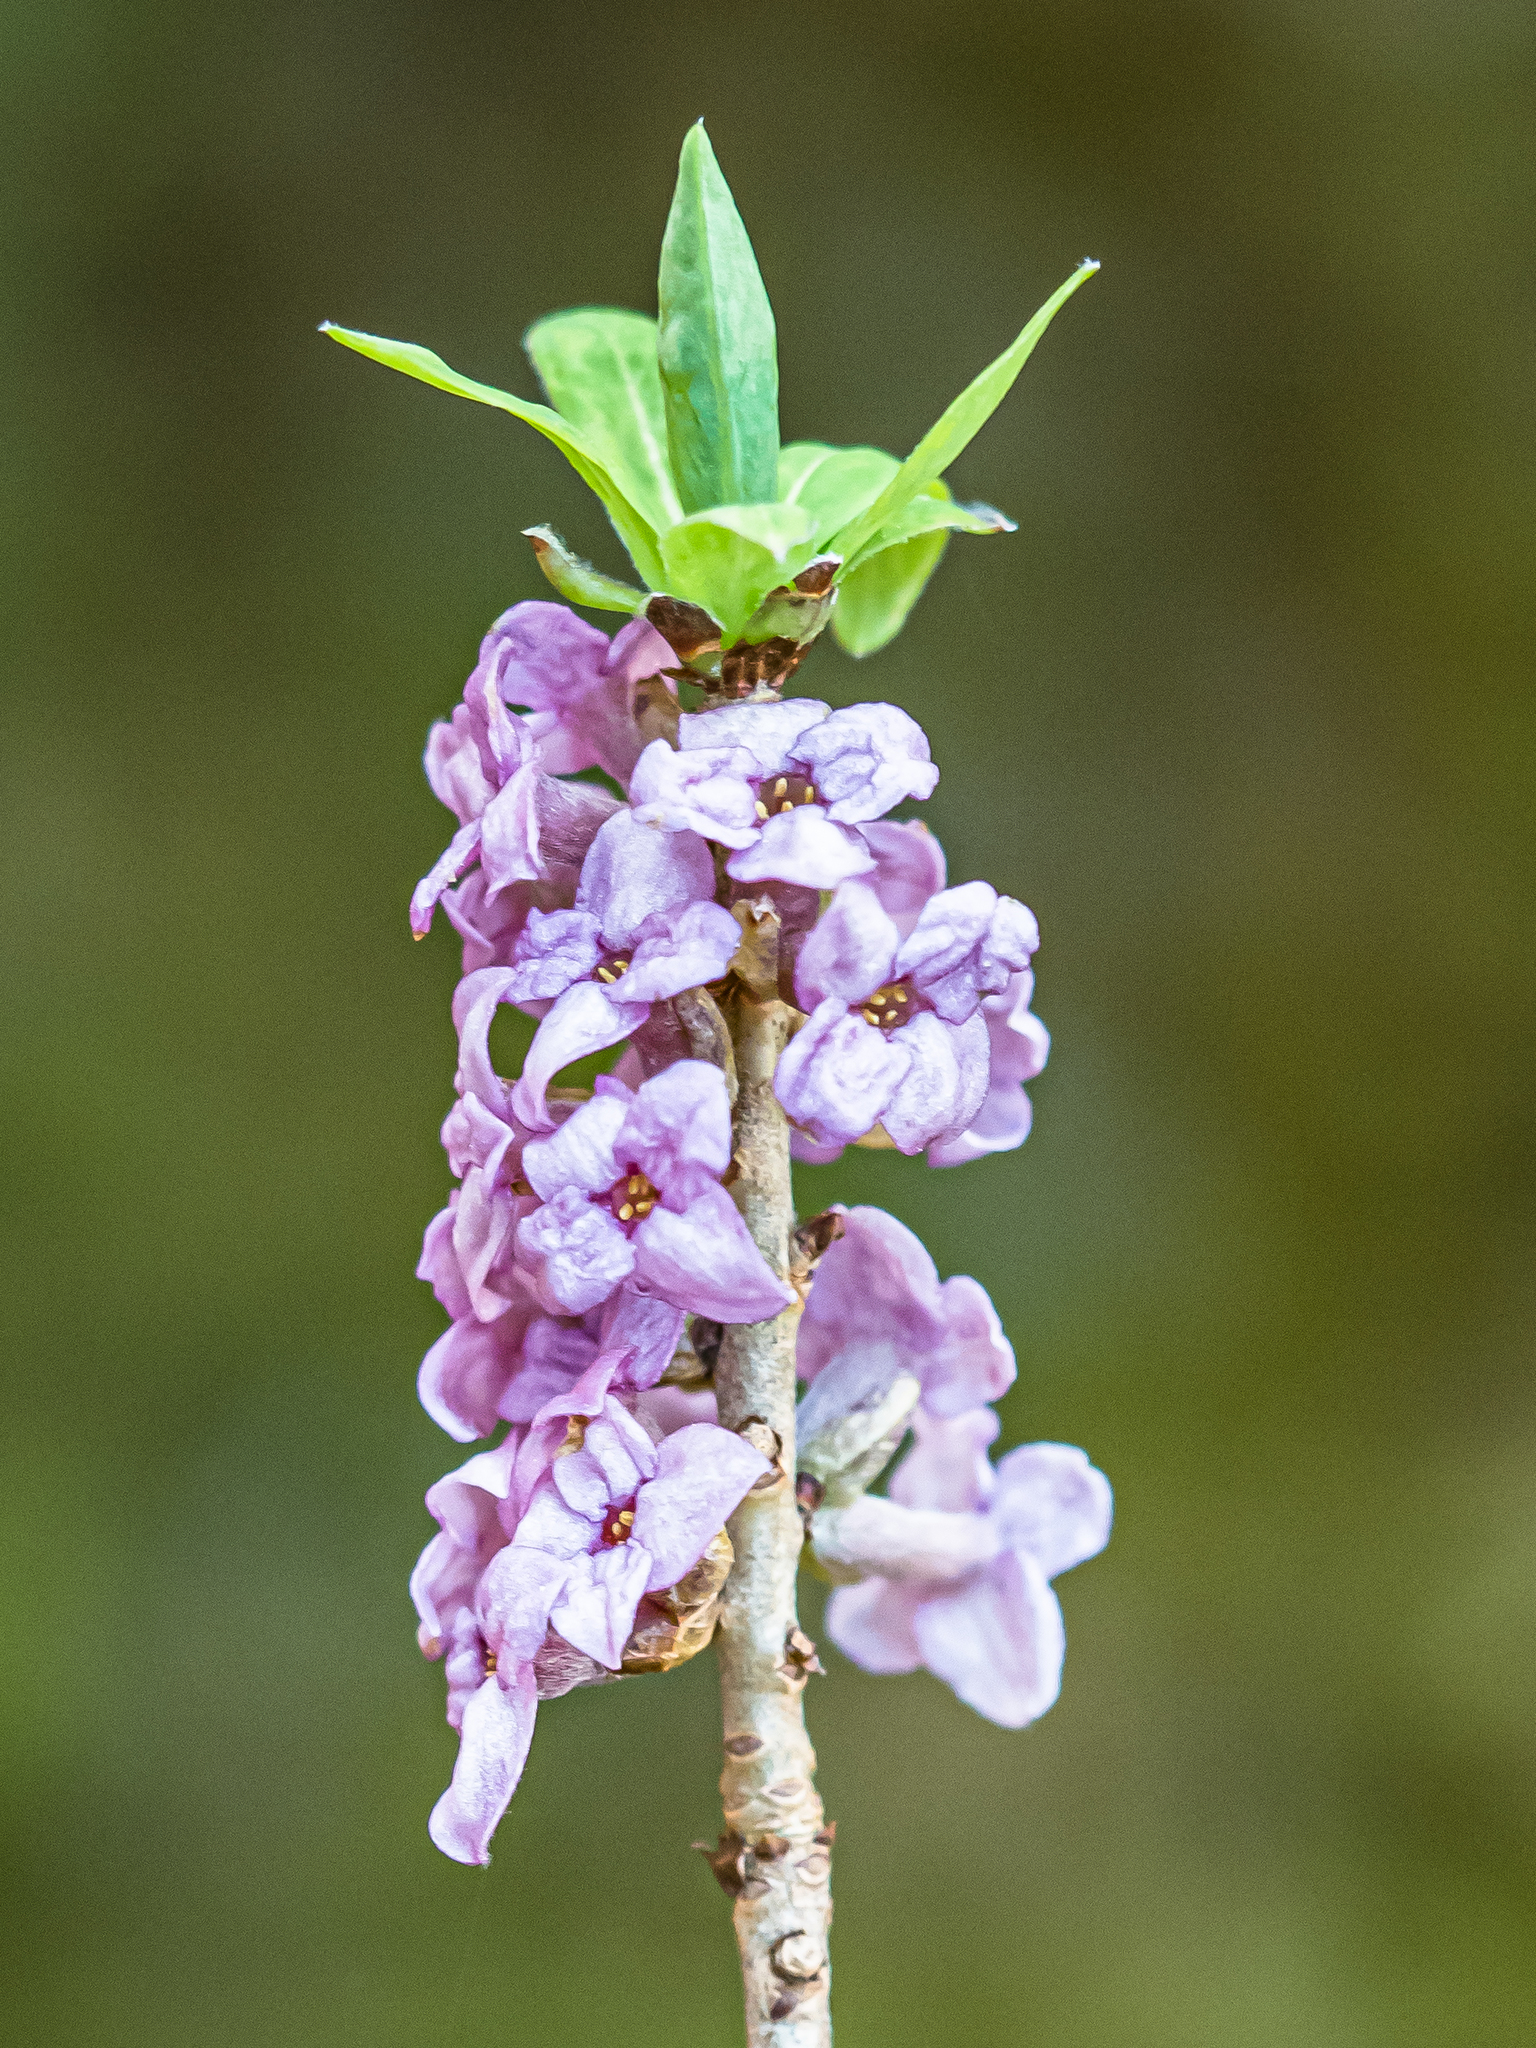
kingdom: Plantae
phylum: Tracheophyta
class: Magnoliopsida
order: Malvales
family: Thymelaeaceae
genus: Daphne
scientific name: Daphne mezereum
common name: Mezereon
